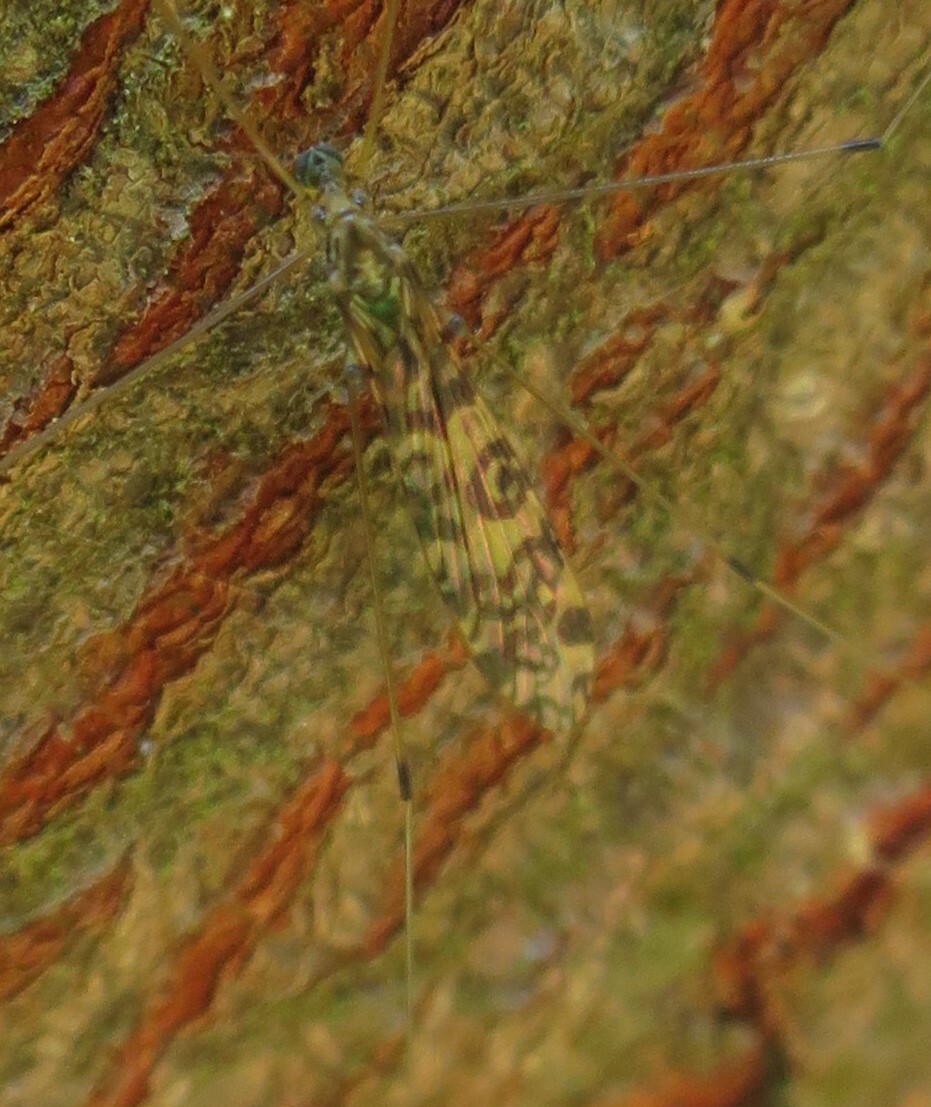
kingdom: Animalia
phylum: Arthropoda
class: Insecta
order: Diptera
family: Limoniidae
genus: Discobola
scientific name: Discobola gibberina
